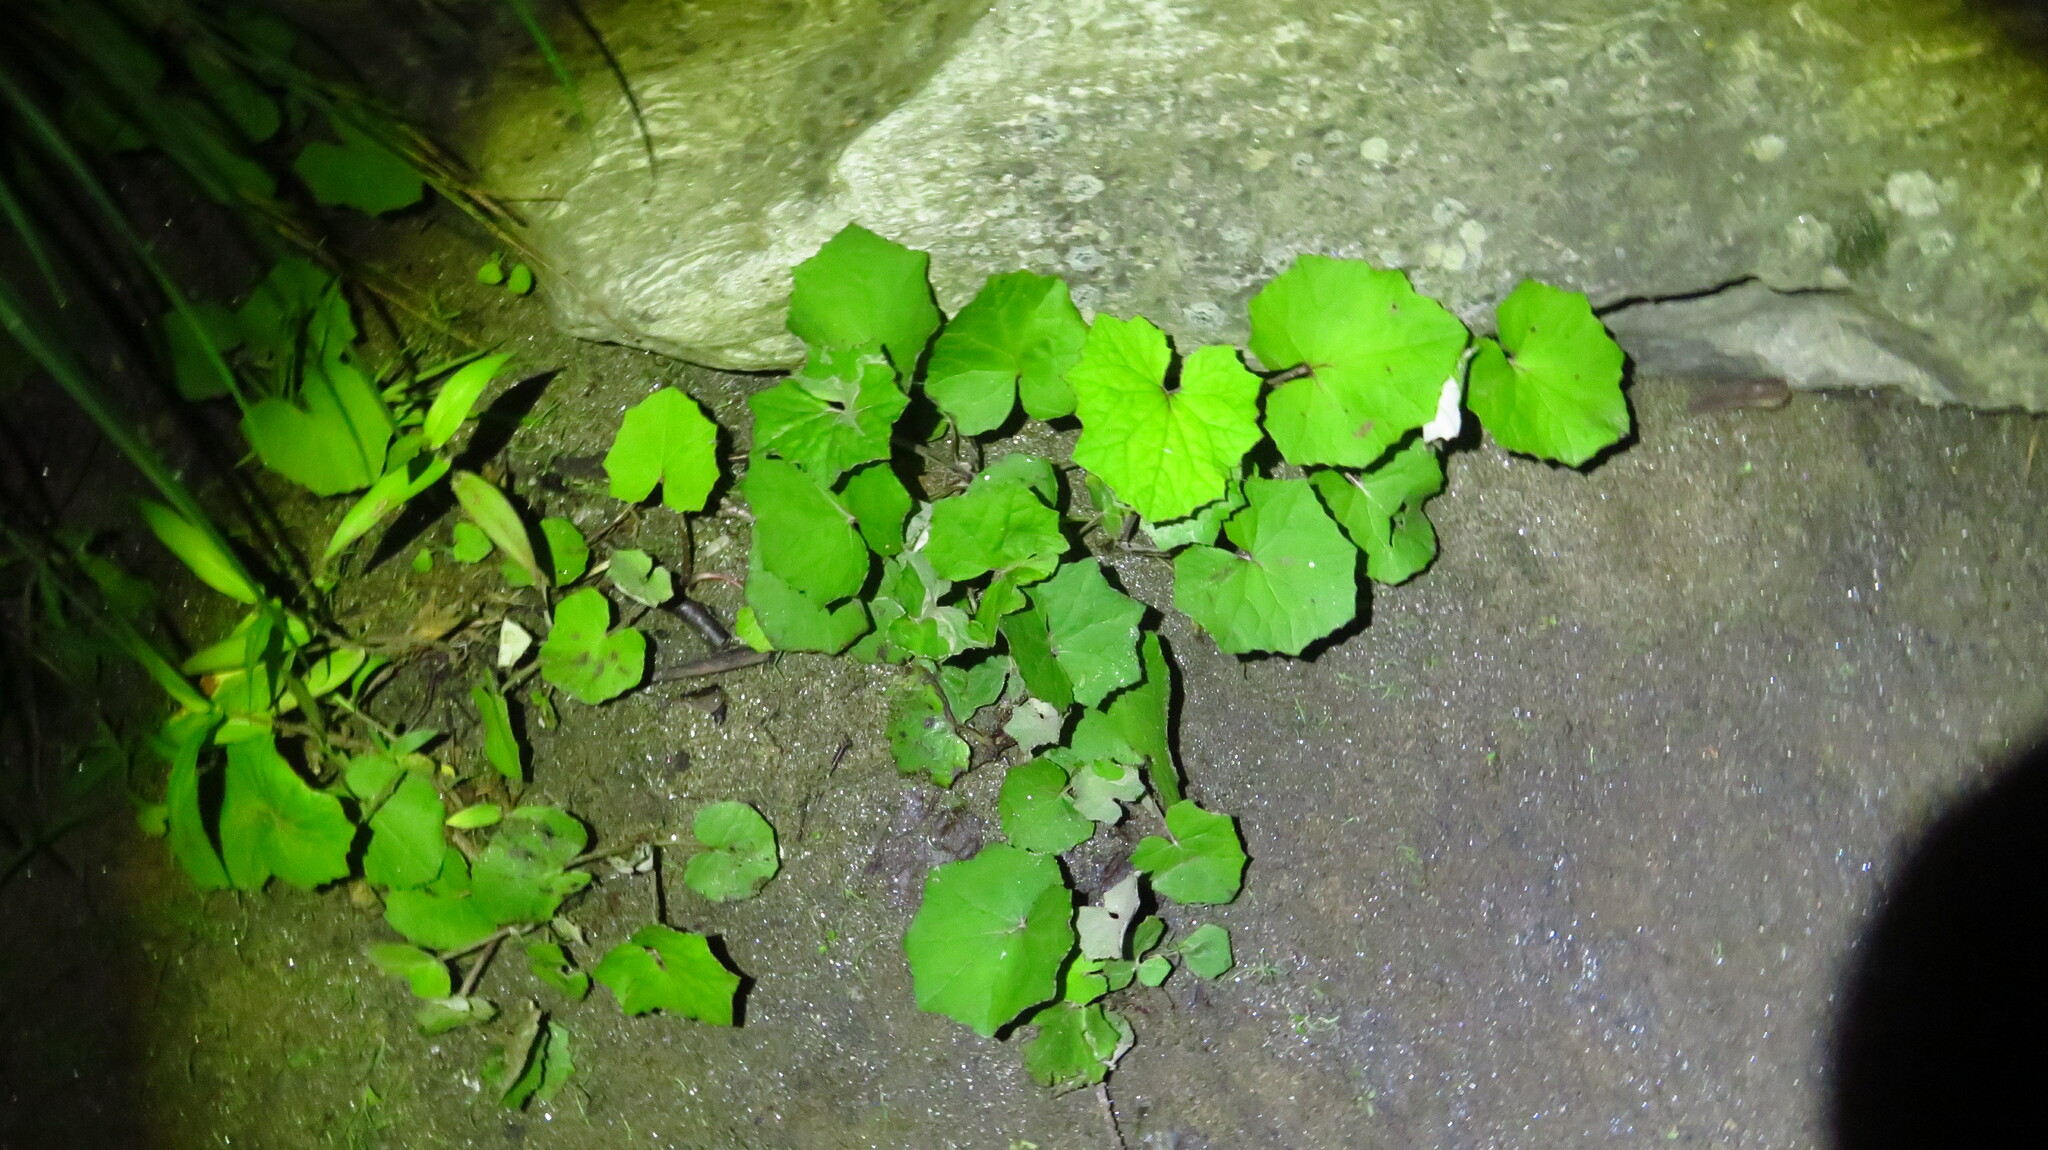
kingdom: Plantae
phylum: Tracheophyta
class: Magnoliopsida
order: Asterales
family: Asteraceae
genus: Tussilago
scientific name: Tussilago farfara
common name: Coltsfoot
